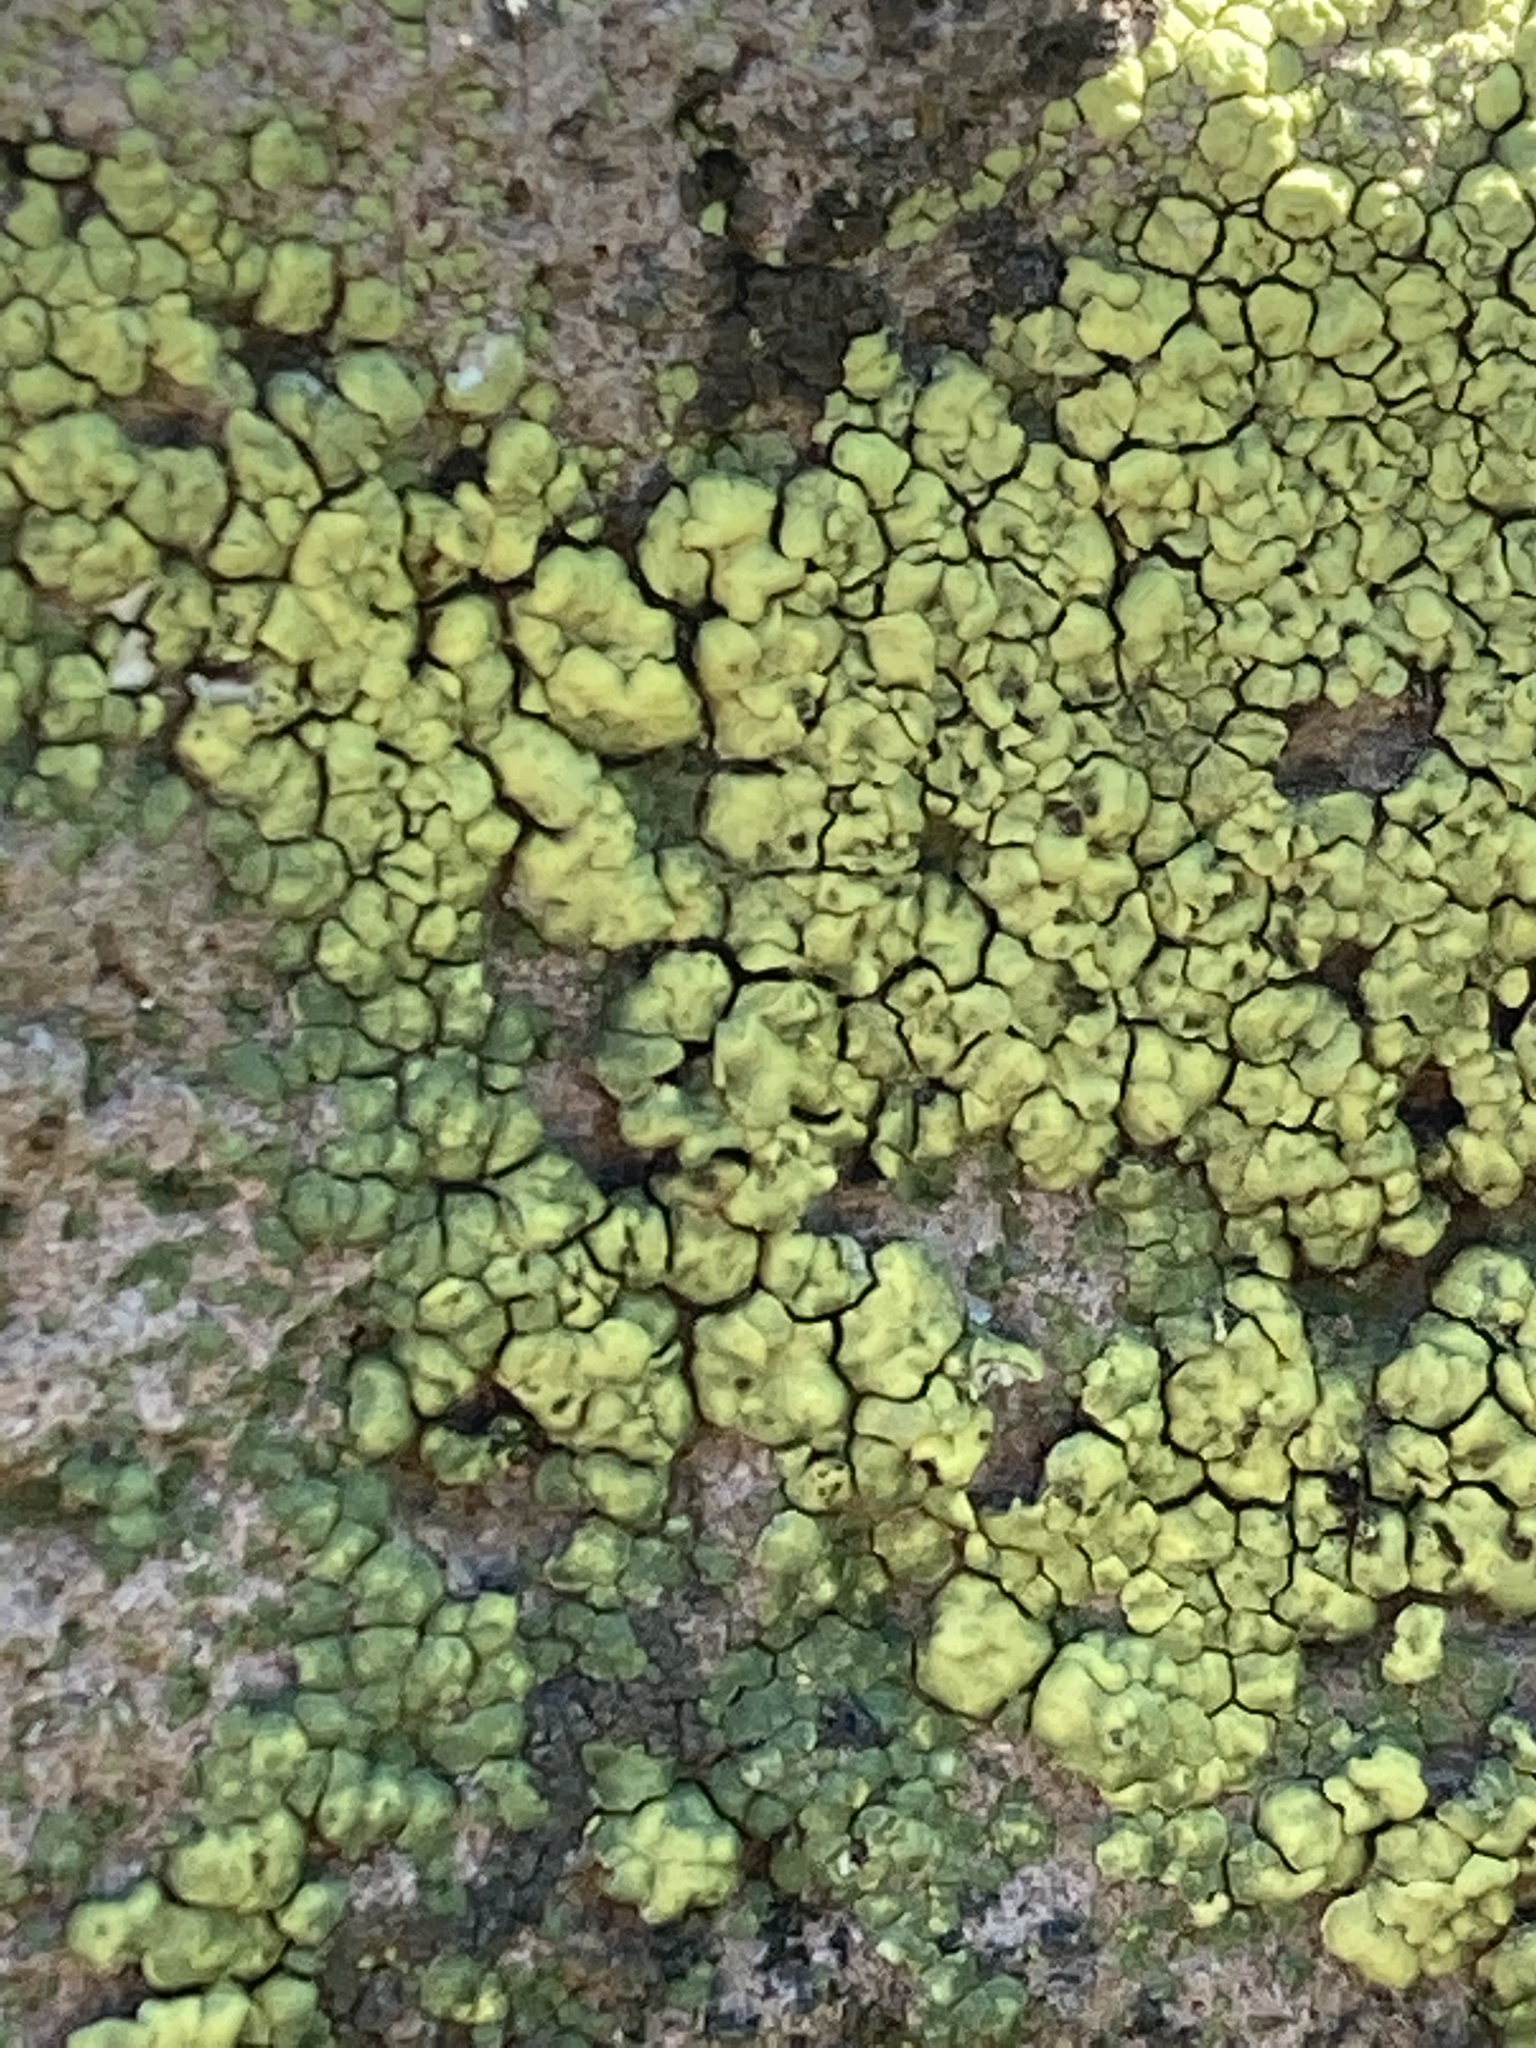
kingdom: Fungi
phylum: Ascomycota
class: Lecanoromycetes
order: Acarosporales
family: Acarosporaceae
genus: Acarospora
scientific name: Acarospora socialis
